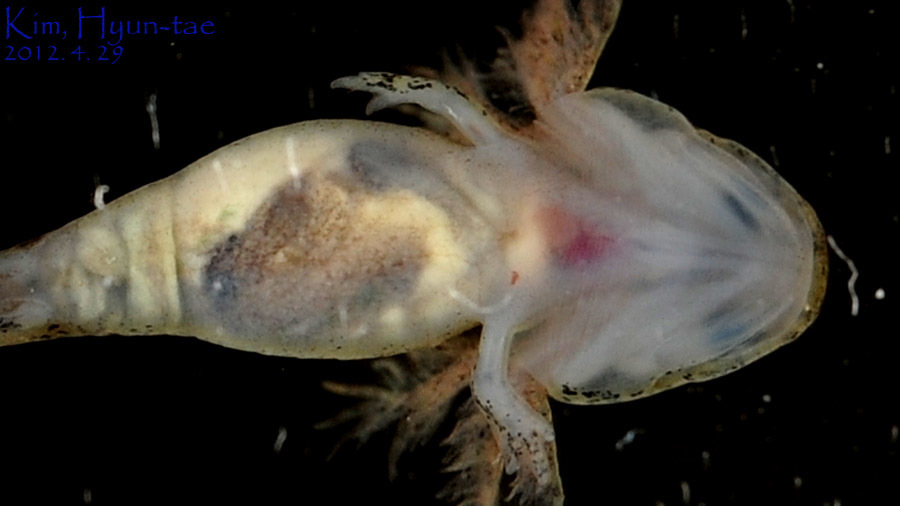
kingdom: Animalia
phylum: Chordata
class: Amphibia
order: Caudata
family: Hynobiidae
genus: Hynobius
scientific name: Hynobius leechii
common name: Gensan salamander
